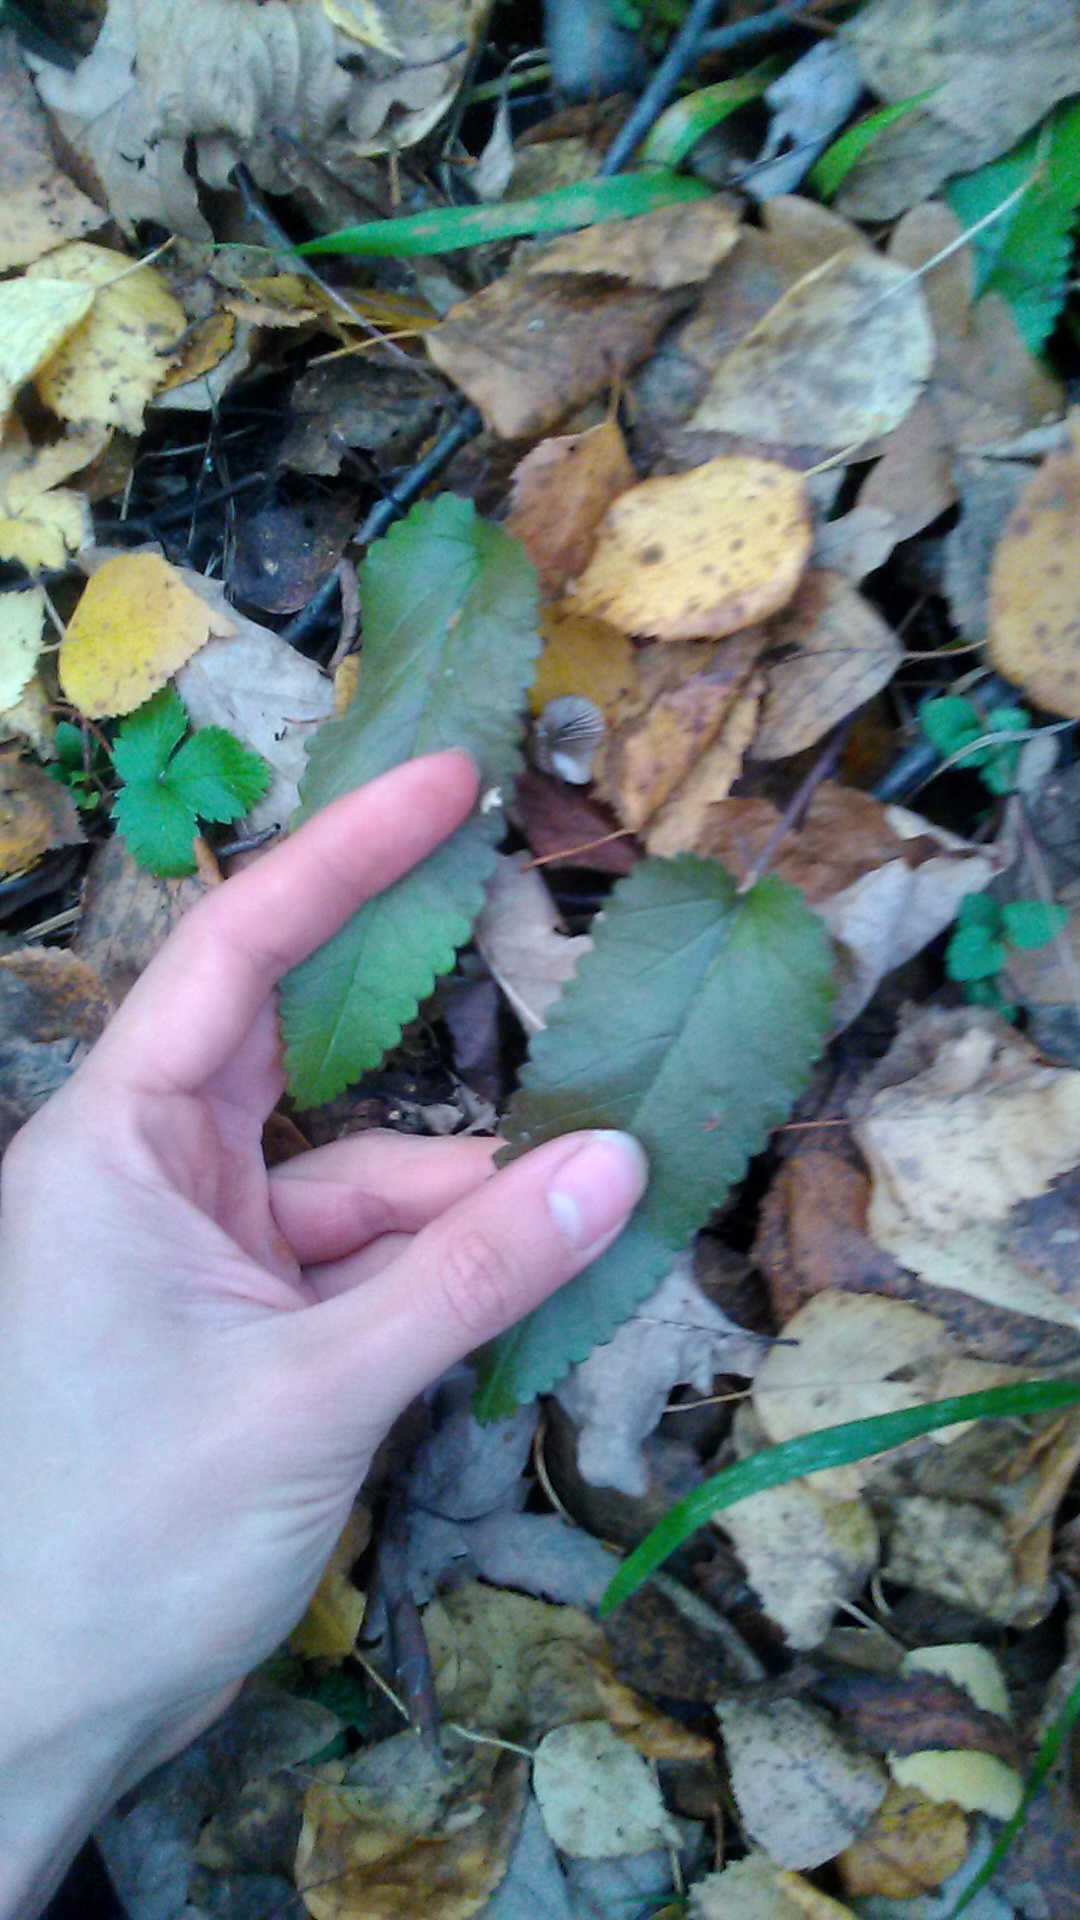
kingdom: Plantae
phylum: Tracheophyta
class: Magnoliopsida
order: Lamiales
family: Lamiaceae
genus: Betonica
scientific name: Betonica officinalis
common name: Bishop's-wort
